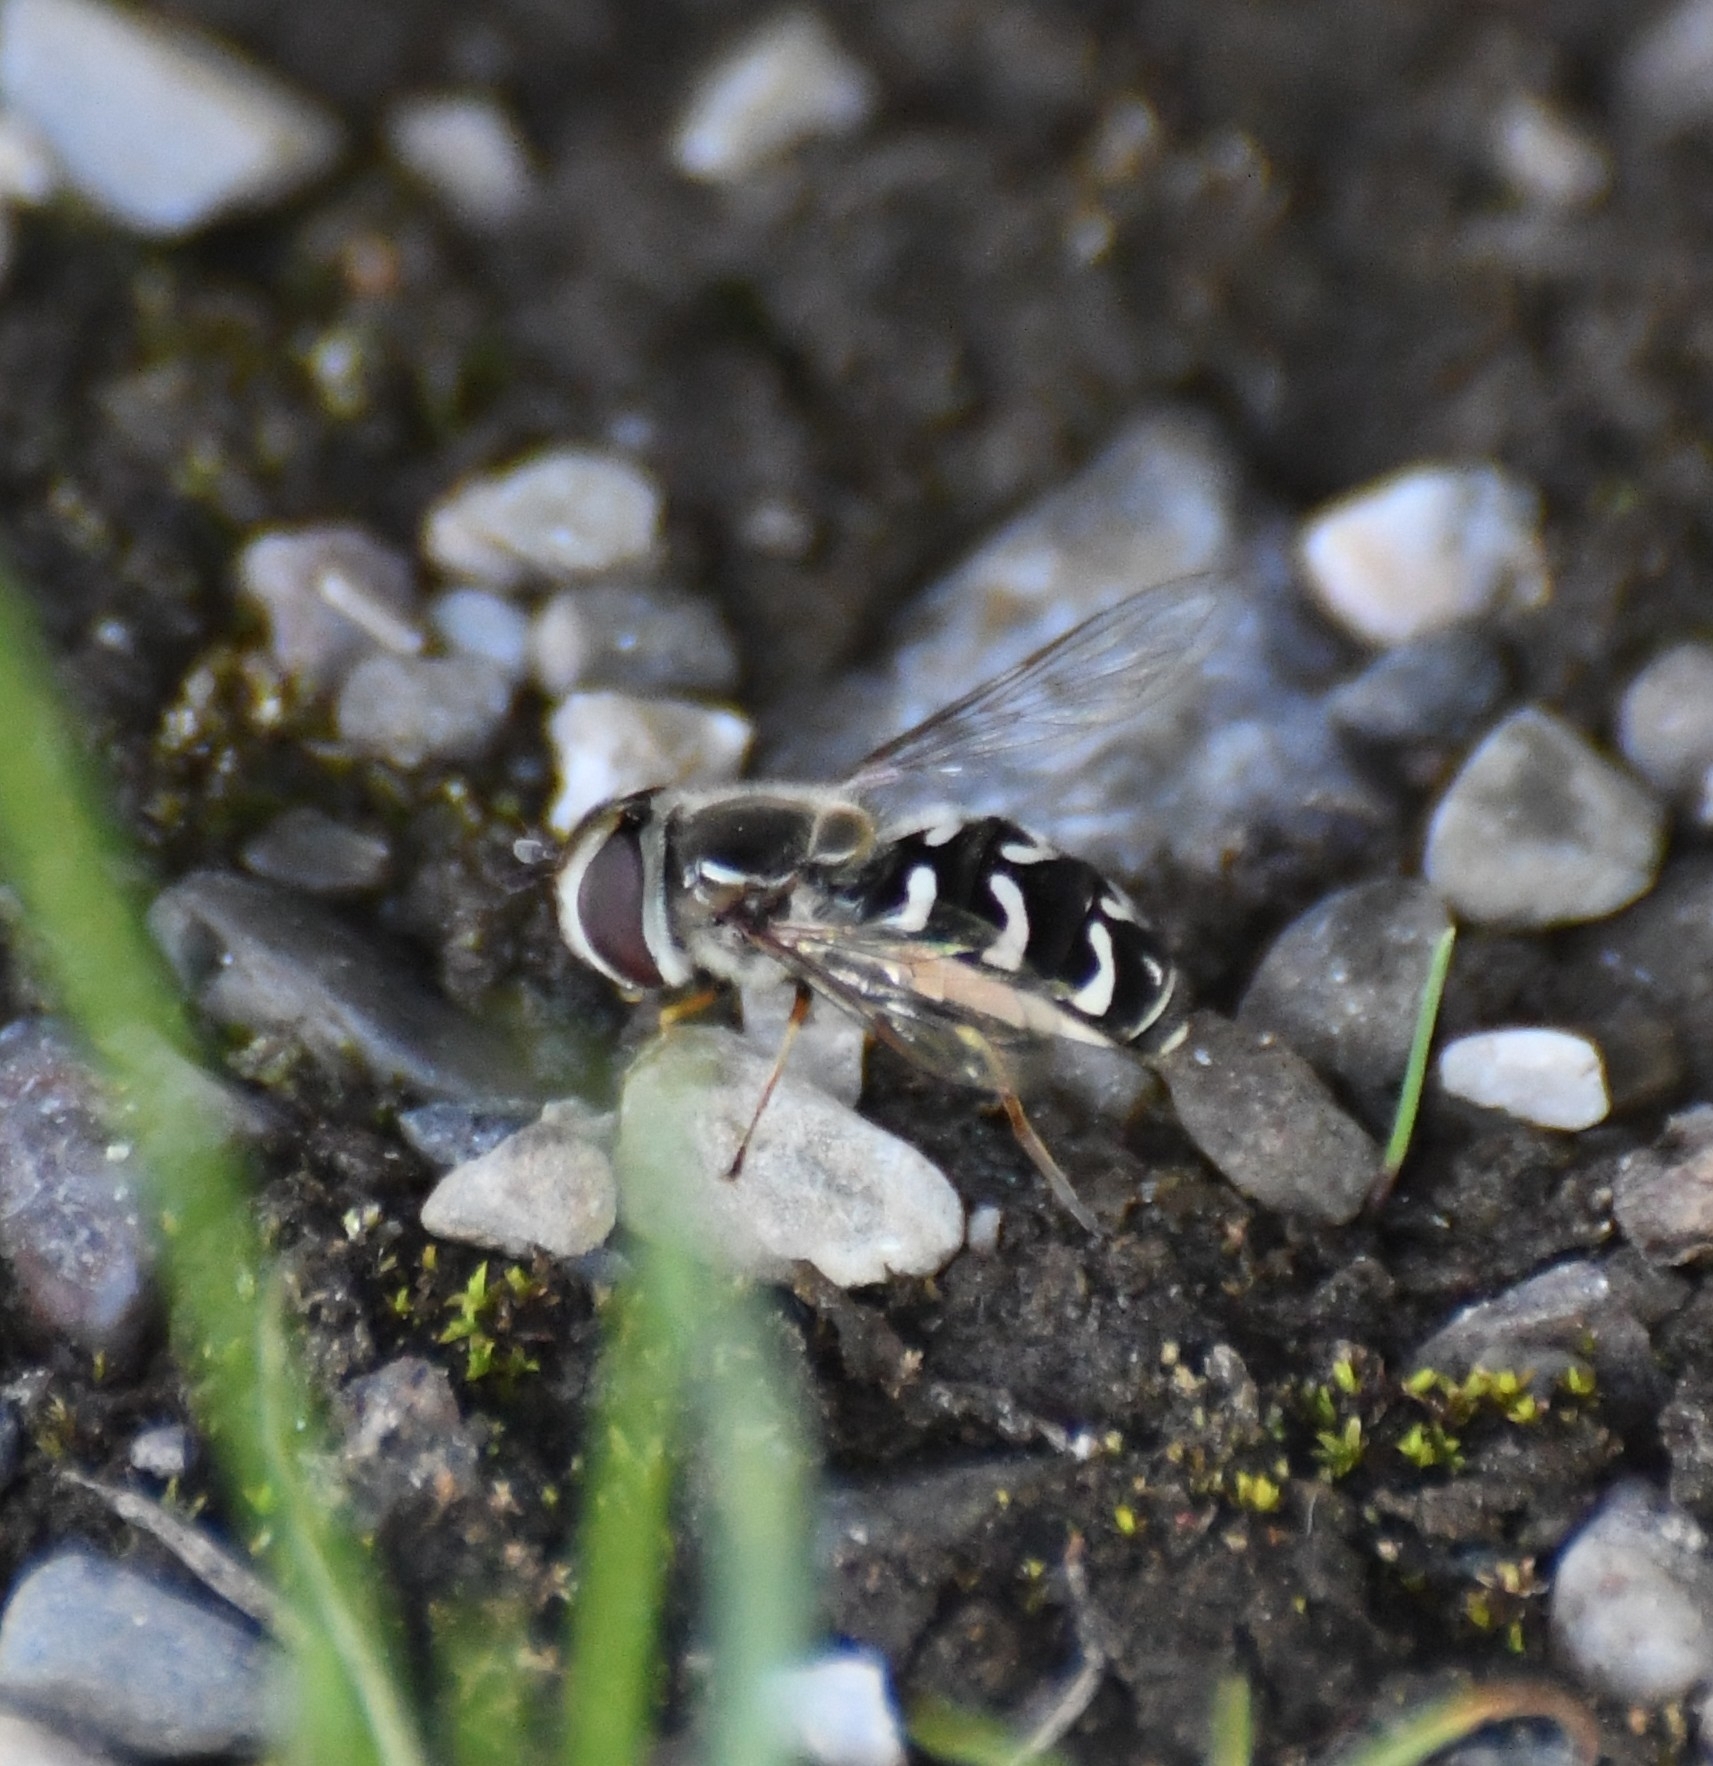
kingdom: Animalia
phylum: Arthropoda
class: Insecta
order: Diptera
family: Syrphidae
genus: Scaeva
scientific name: Scaeva affinis
